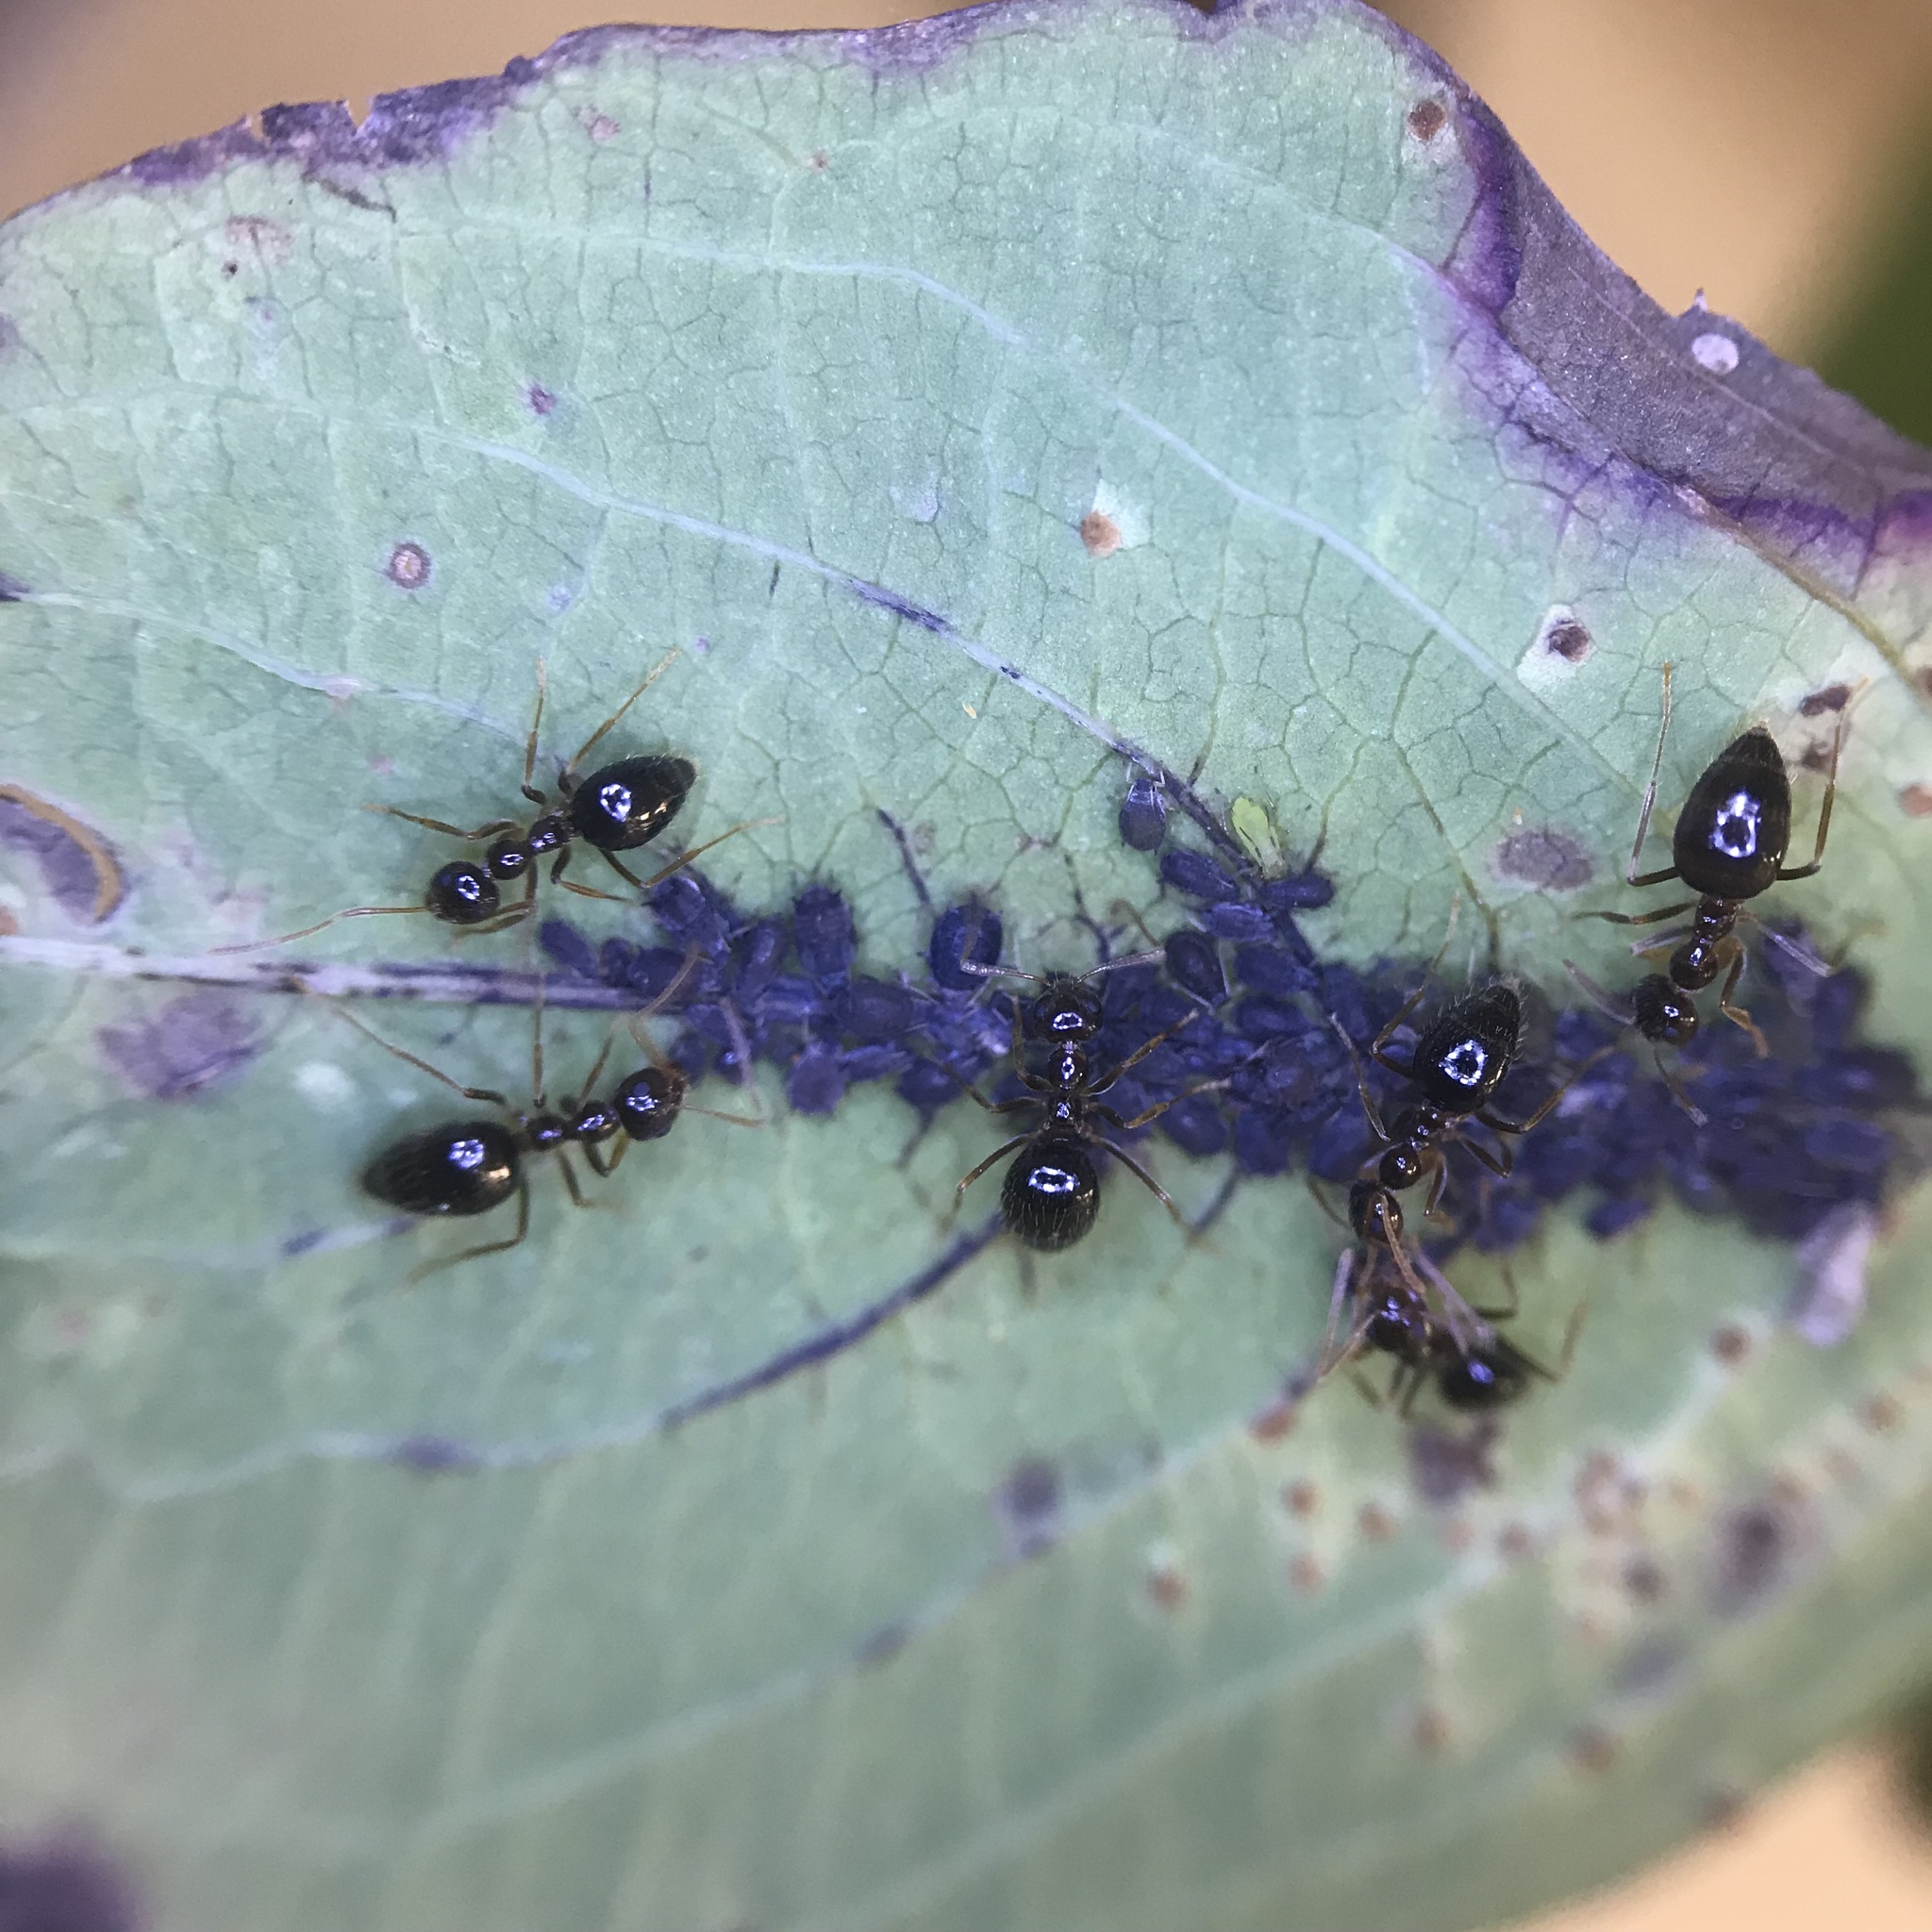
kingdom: Animalia
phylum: Arthropoda
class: Insecta
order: Hymenoptera
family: Formicidae
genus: Prenolepis
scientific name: Prenolepis imparis
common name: Small honey ant
